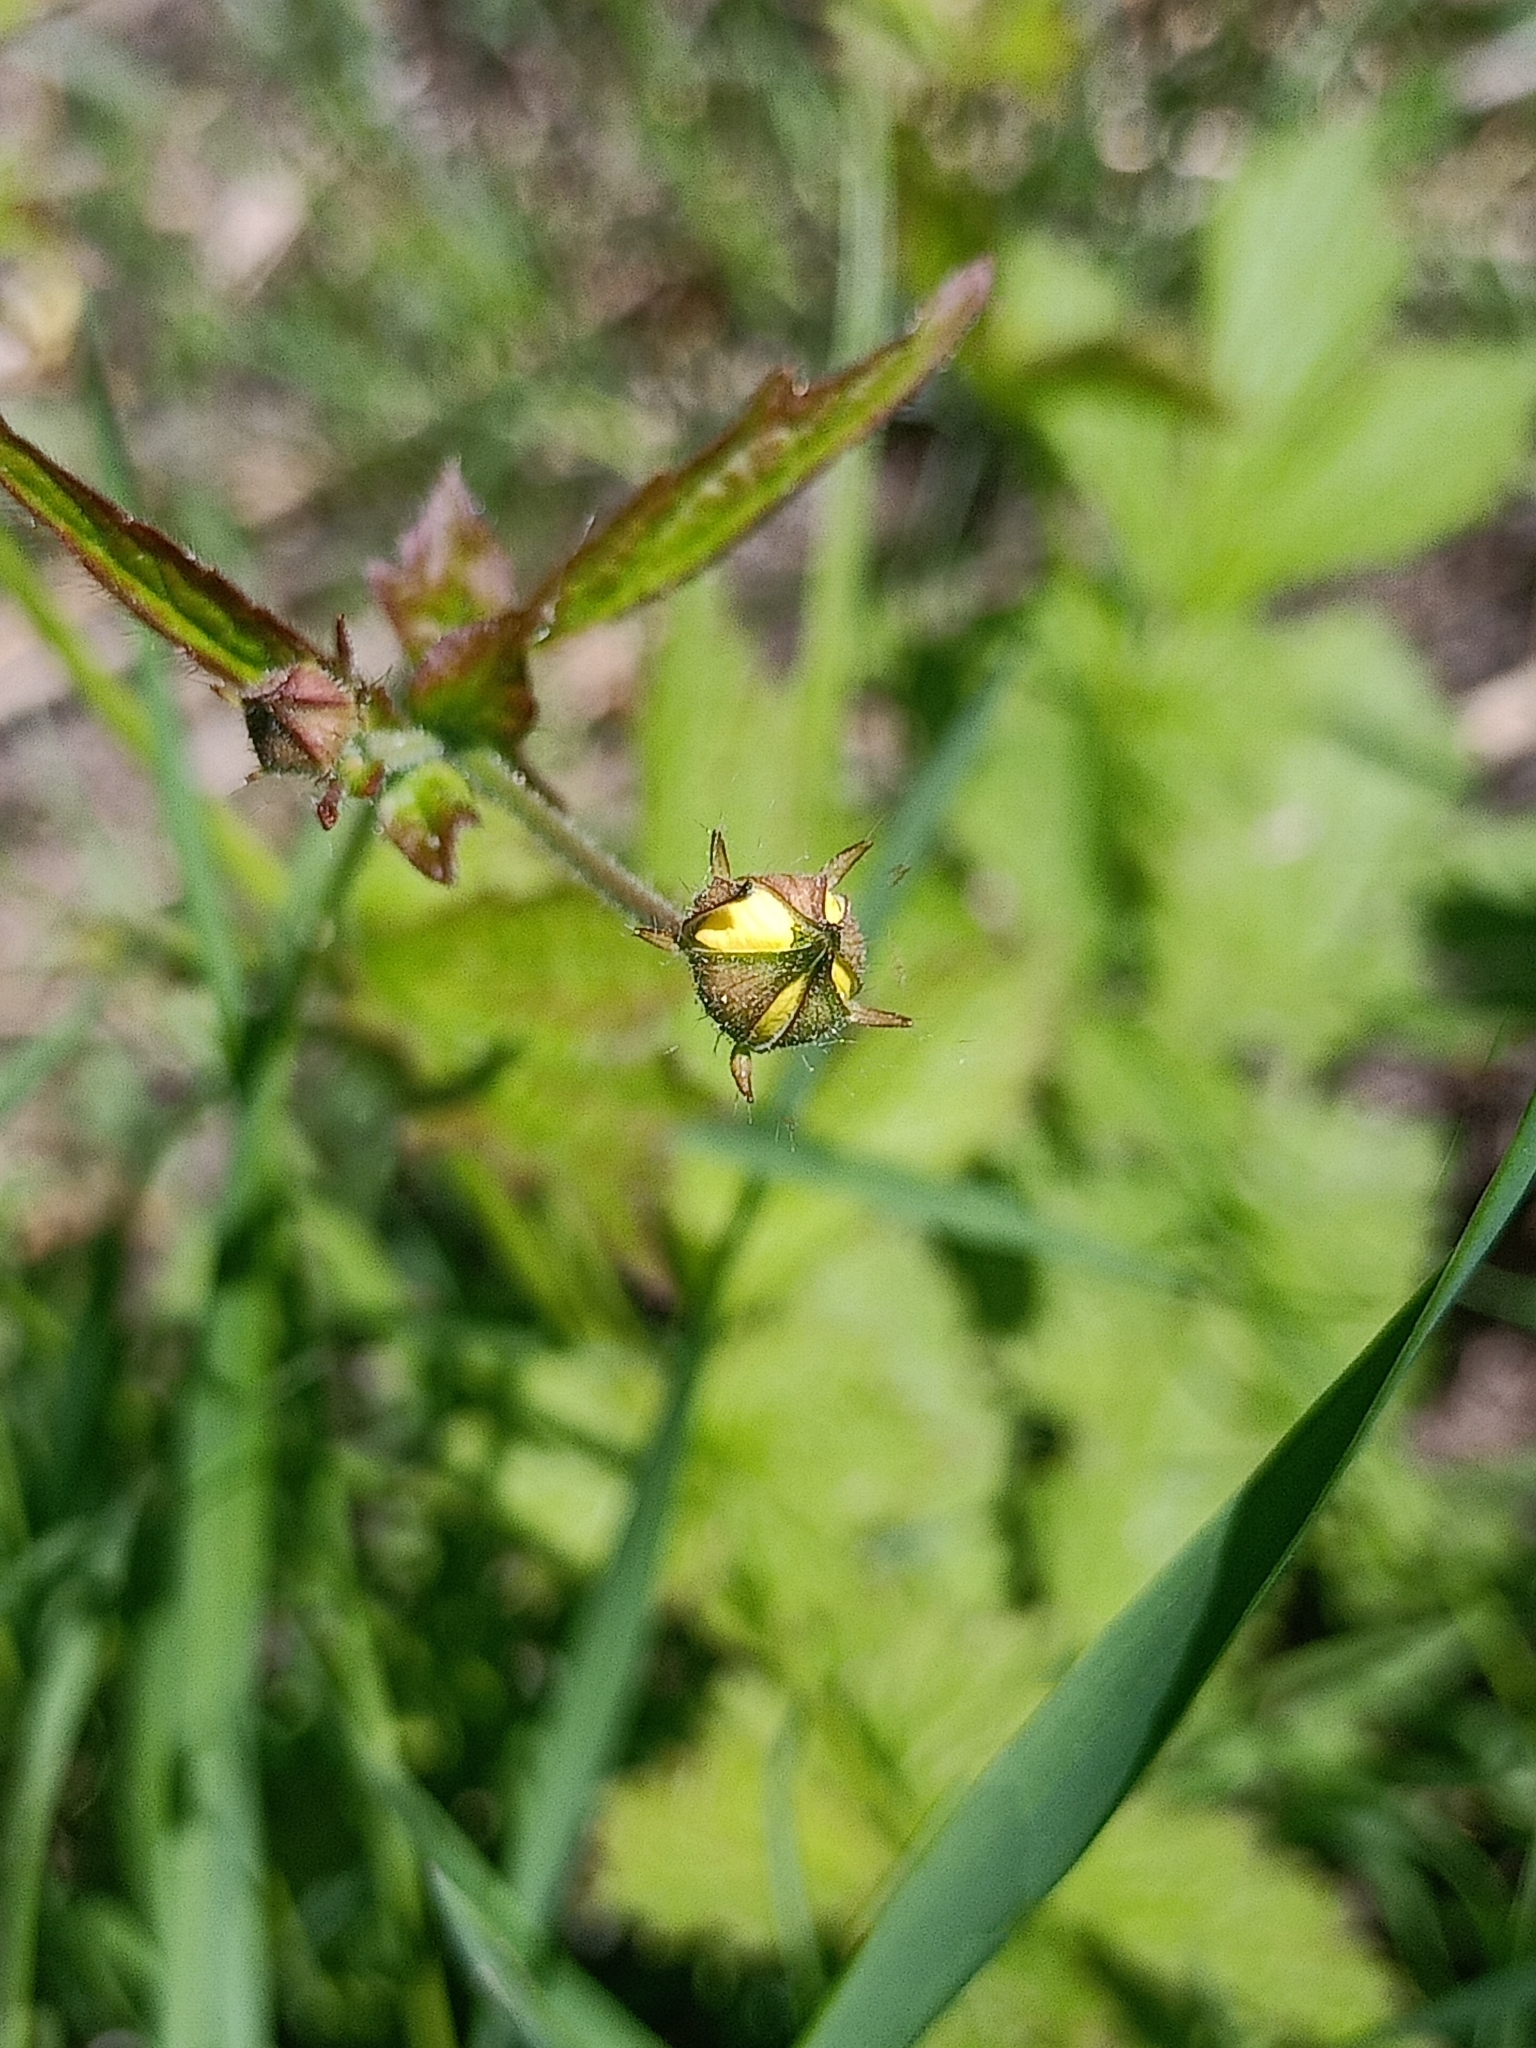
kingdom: Plantae
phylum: Tracheophyta
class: Magnoliopsida
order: Rosales
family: Rosaceae
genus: Geum
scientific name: Geum urbanum
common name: Wood avens
